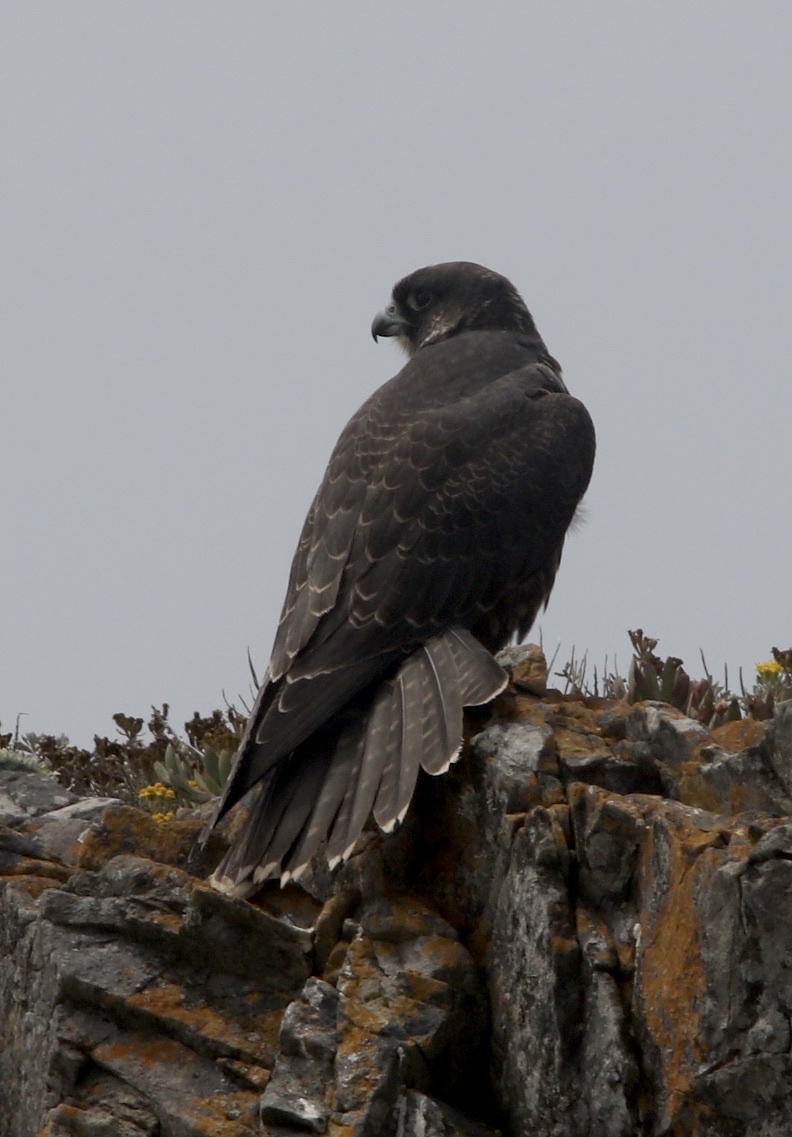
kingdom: Animalia
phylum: Chordata
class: Aves
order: Falconiformes
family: Falconidae
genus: Falco
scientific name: Falco peregrinus
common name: Peregrine falcon
